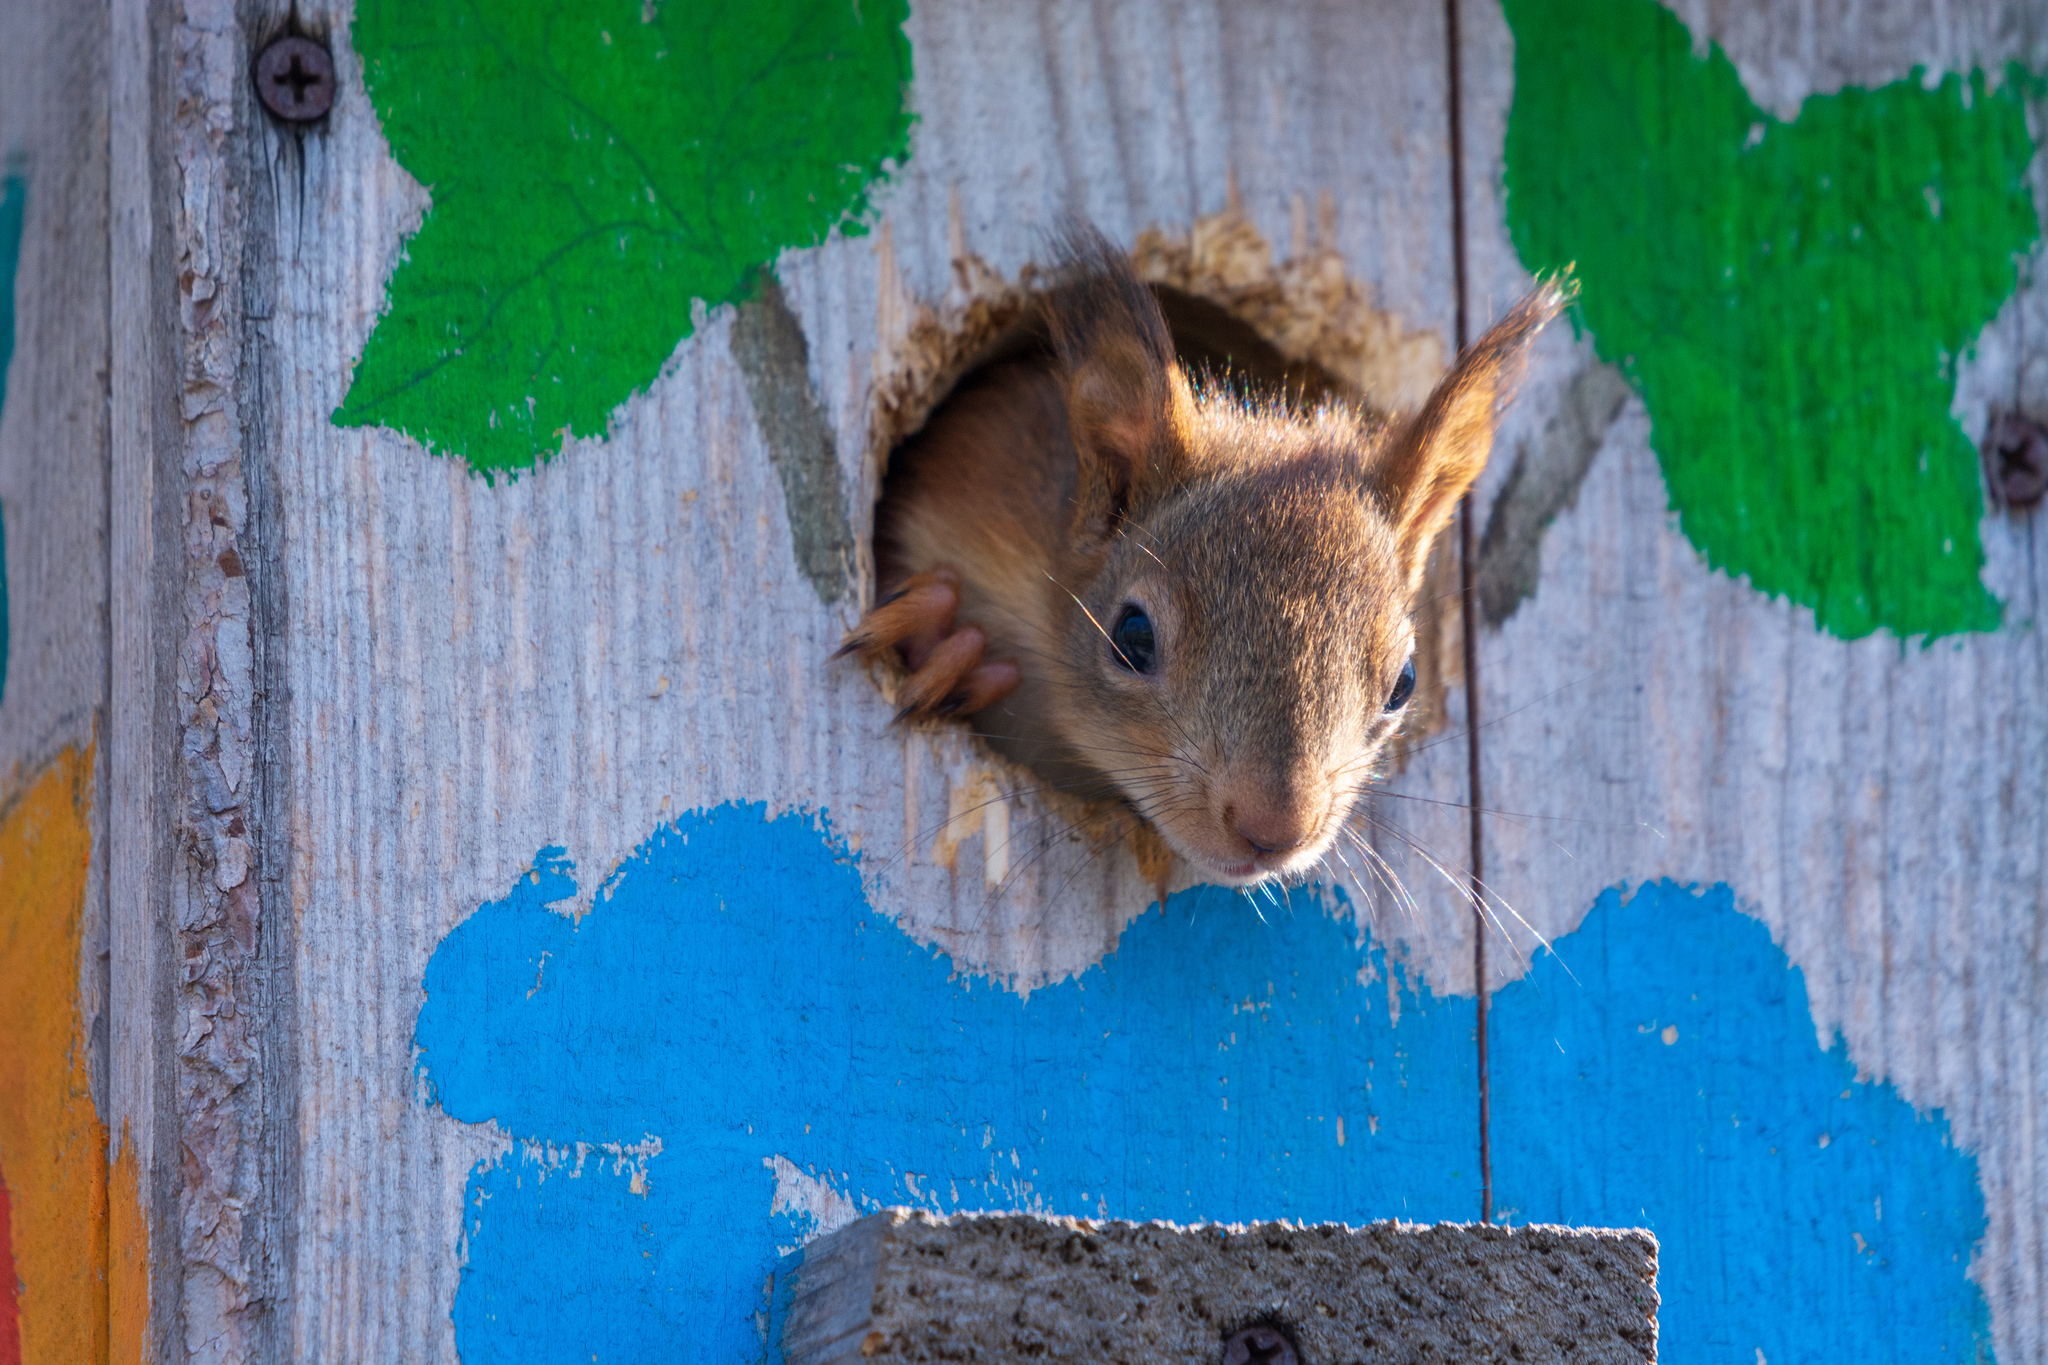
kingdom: Animalia
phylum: Chordata
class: Mammalia
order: Rodentia
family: Sciuridae
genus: Sciurus
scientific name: Sciurus vulgaris
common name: Eurasian red squirrel
